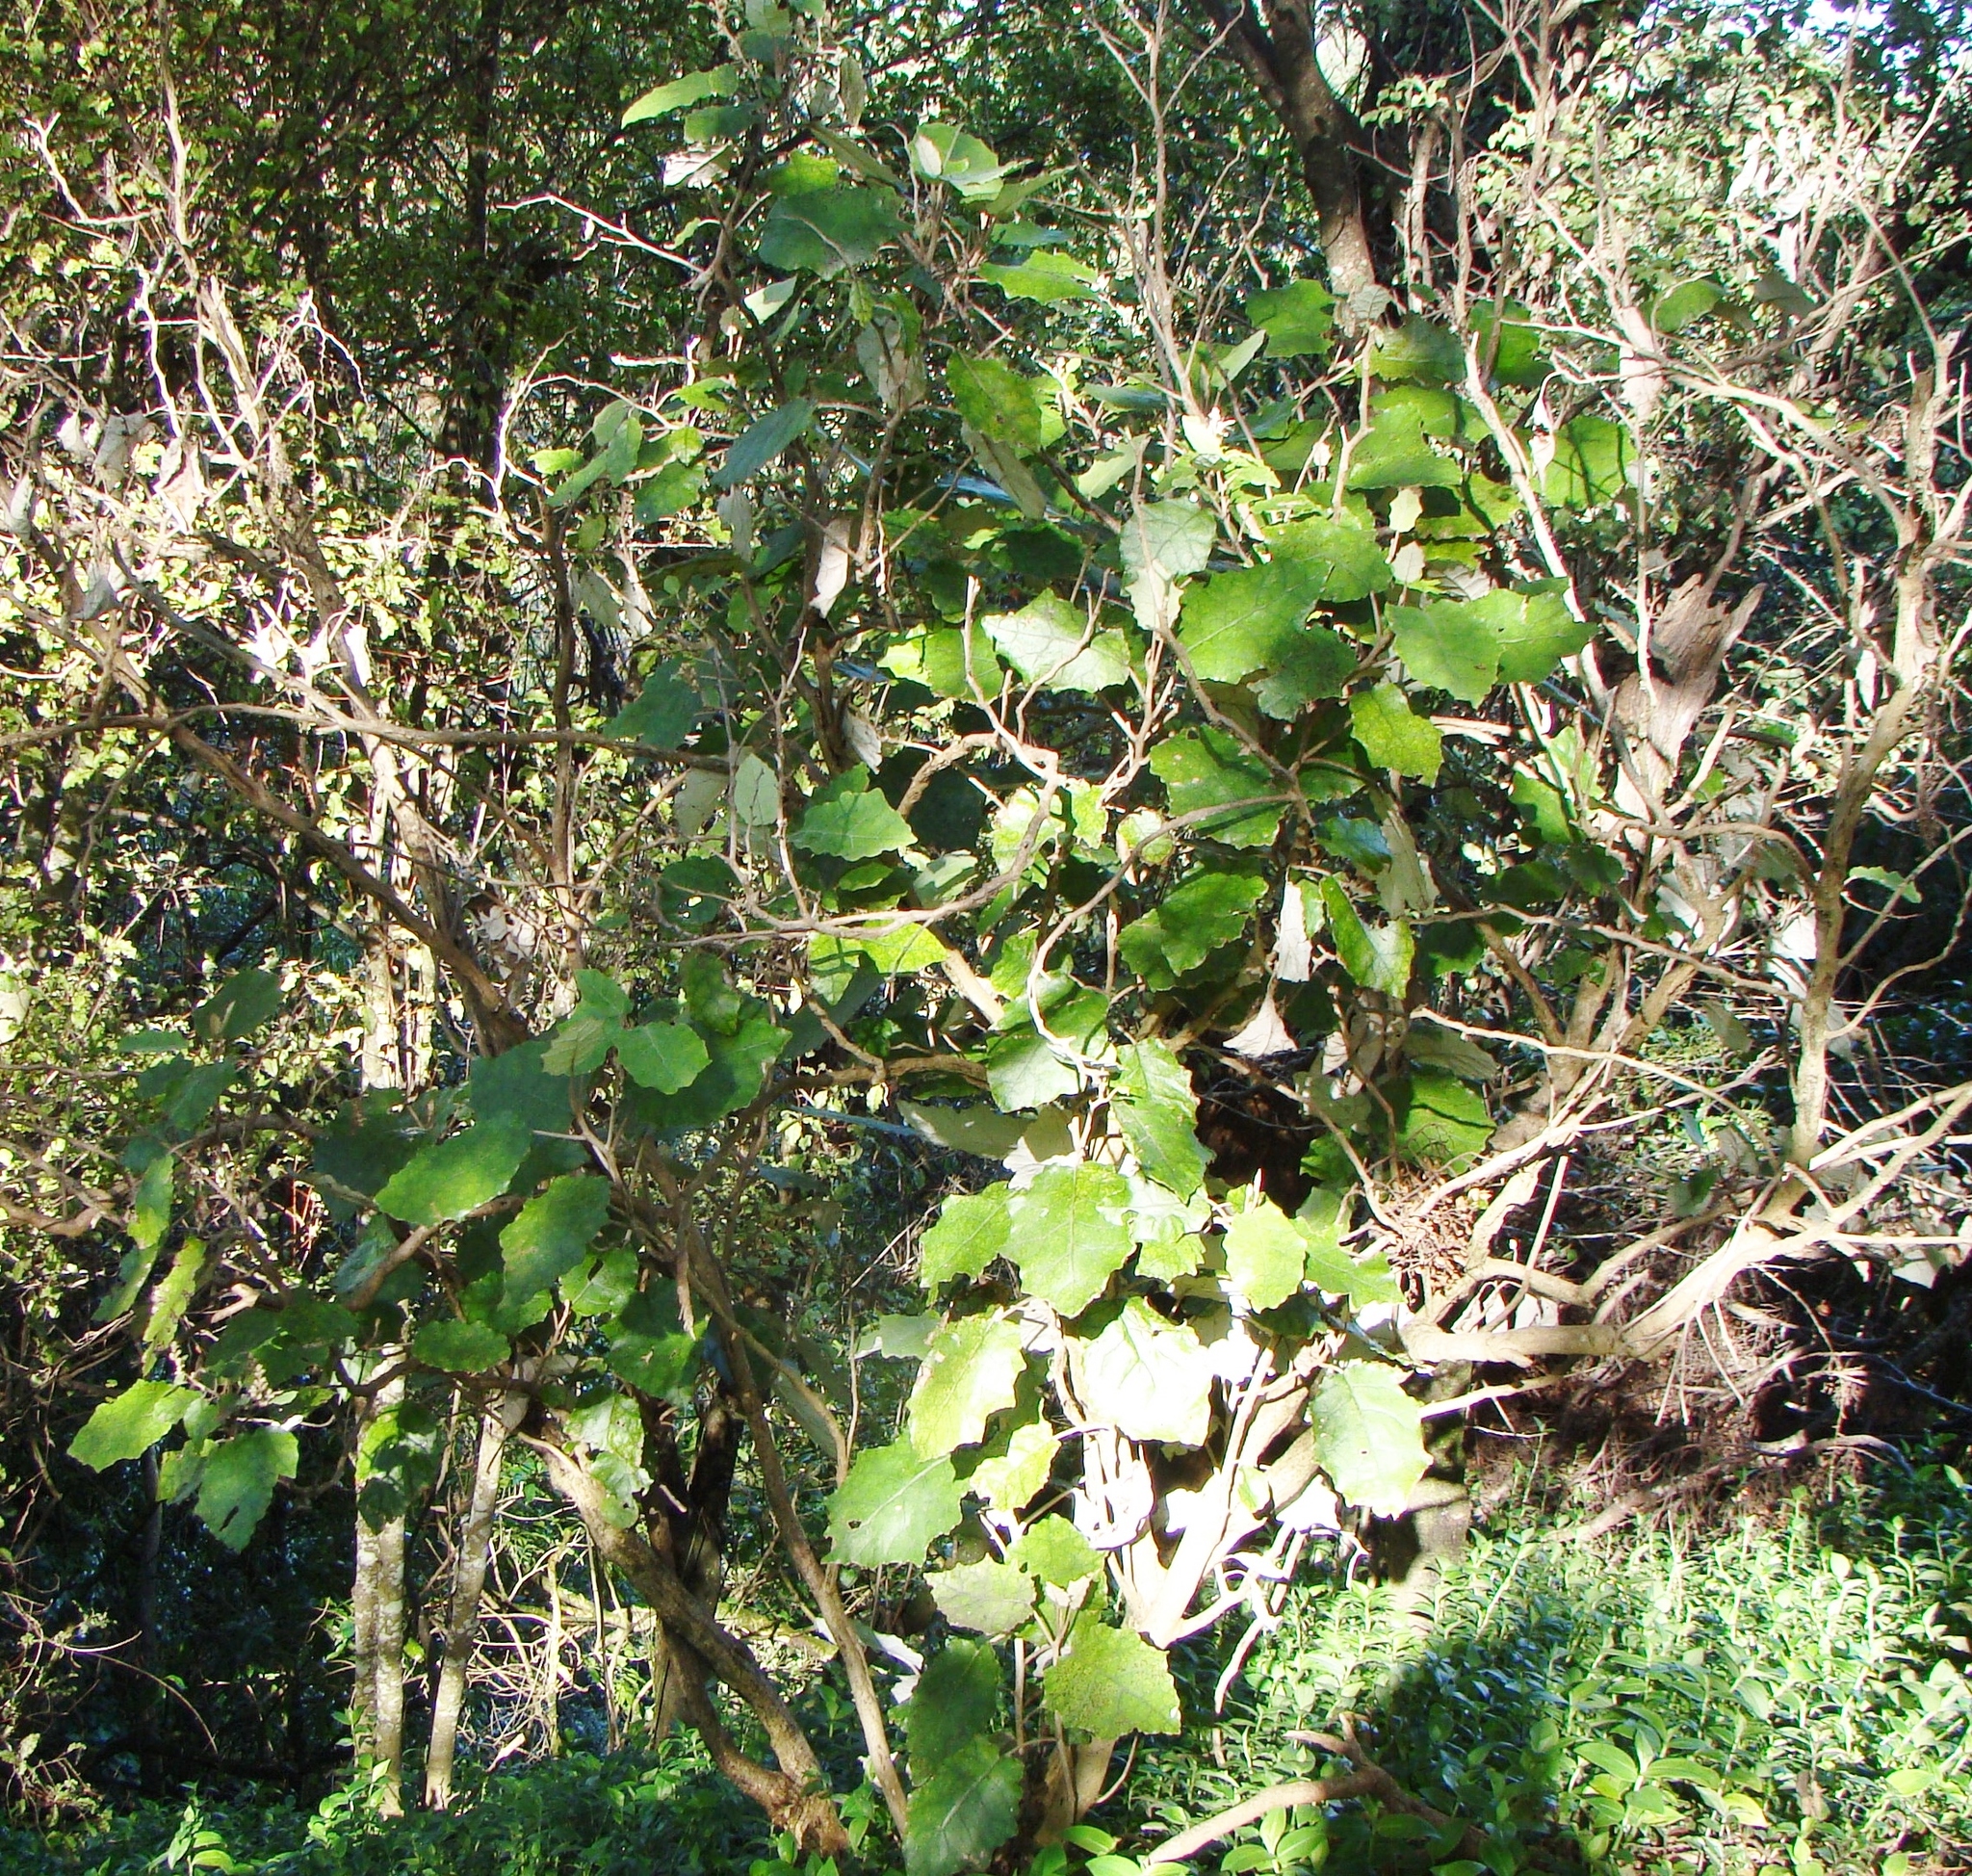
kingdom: Plantae
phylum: Tracheophyta
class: Magnoliopsida
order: Asterales
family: Asteraceae
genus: Brachyglottis
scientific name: Brachyglottis repanda
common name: Hedge ragwort
